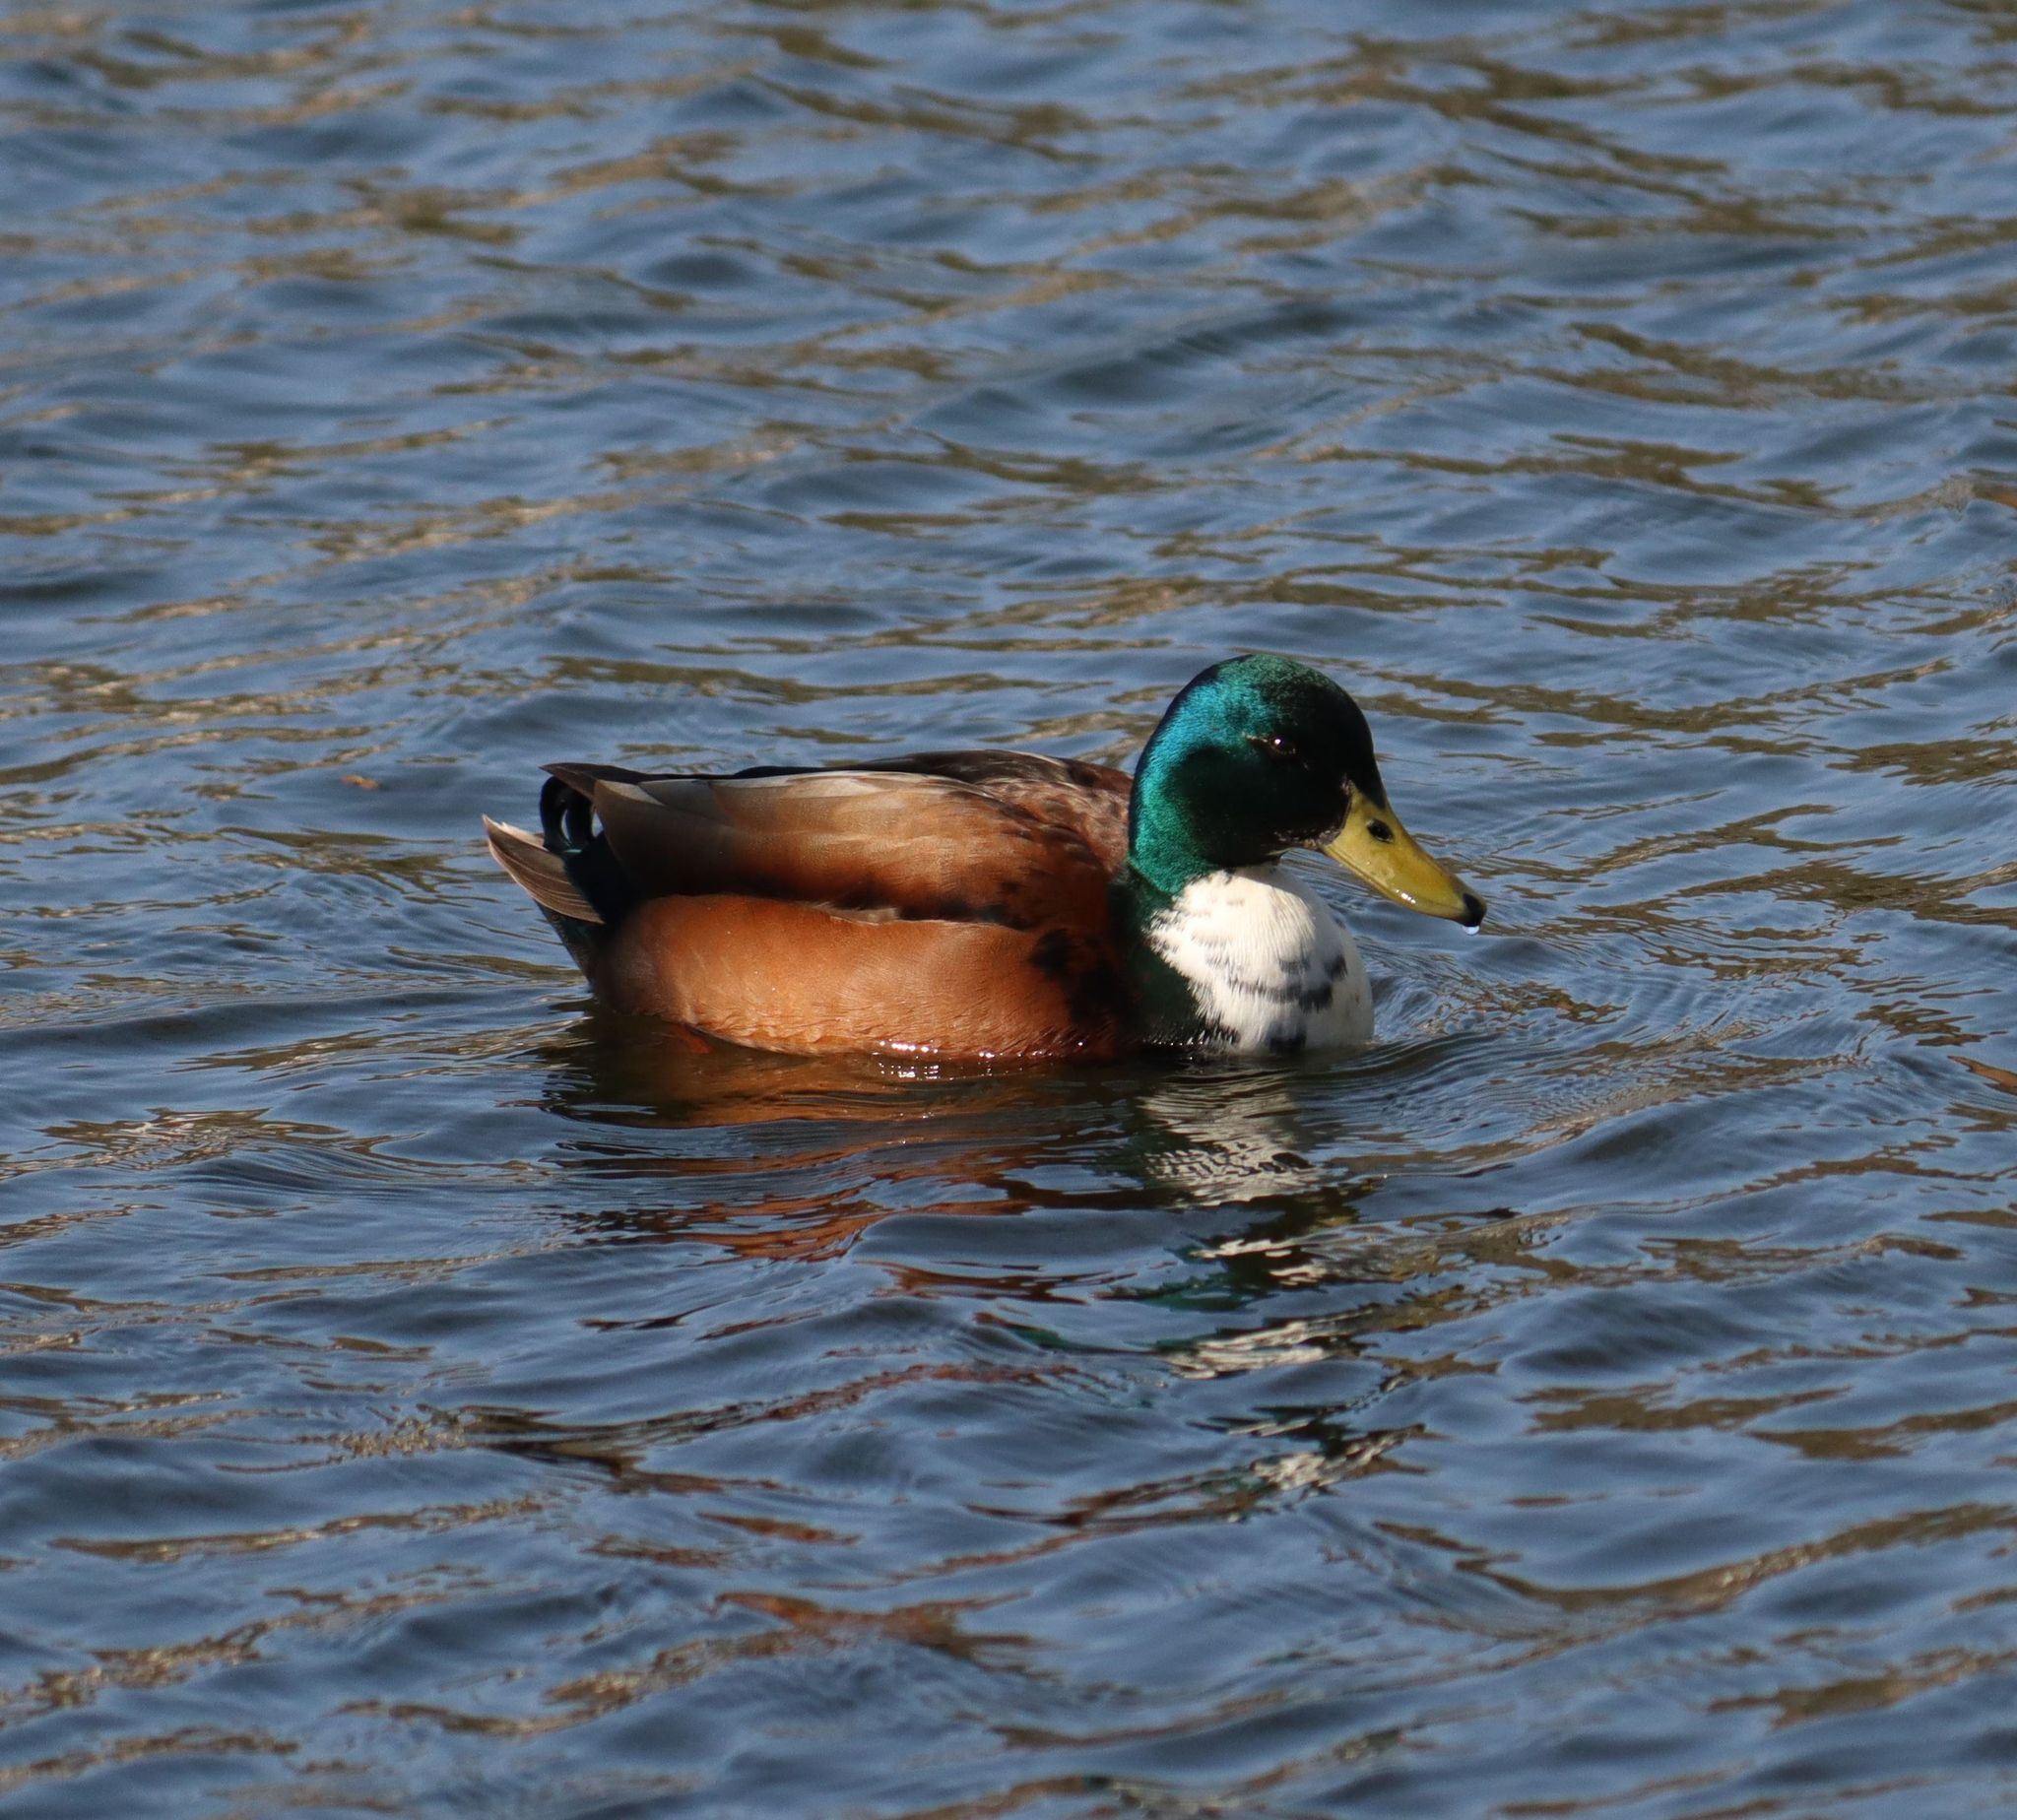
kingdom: Animalia
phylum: Chordata
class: Aves
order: Anseriformes
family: Anatidae
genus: Anas
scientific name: Anas platyrhynchos
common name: Mallard
